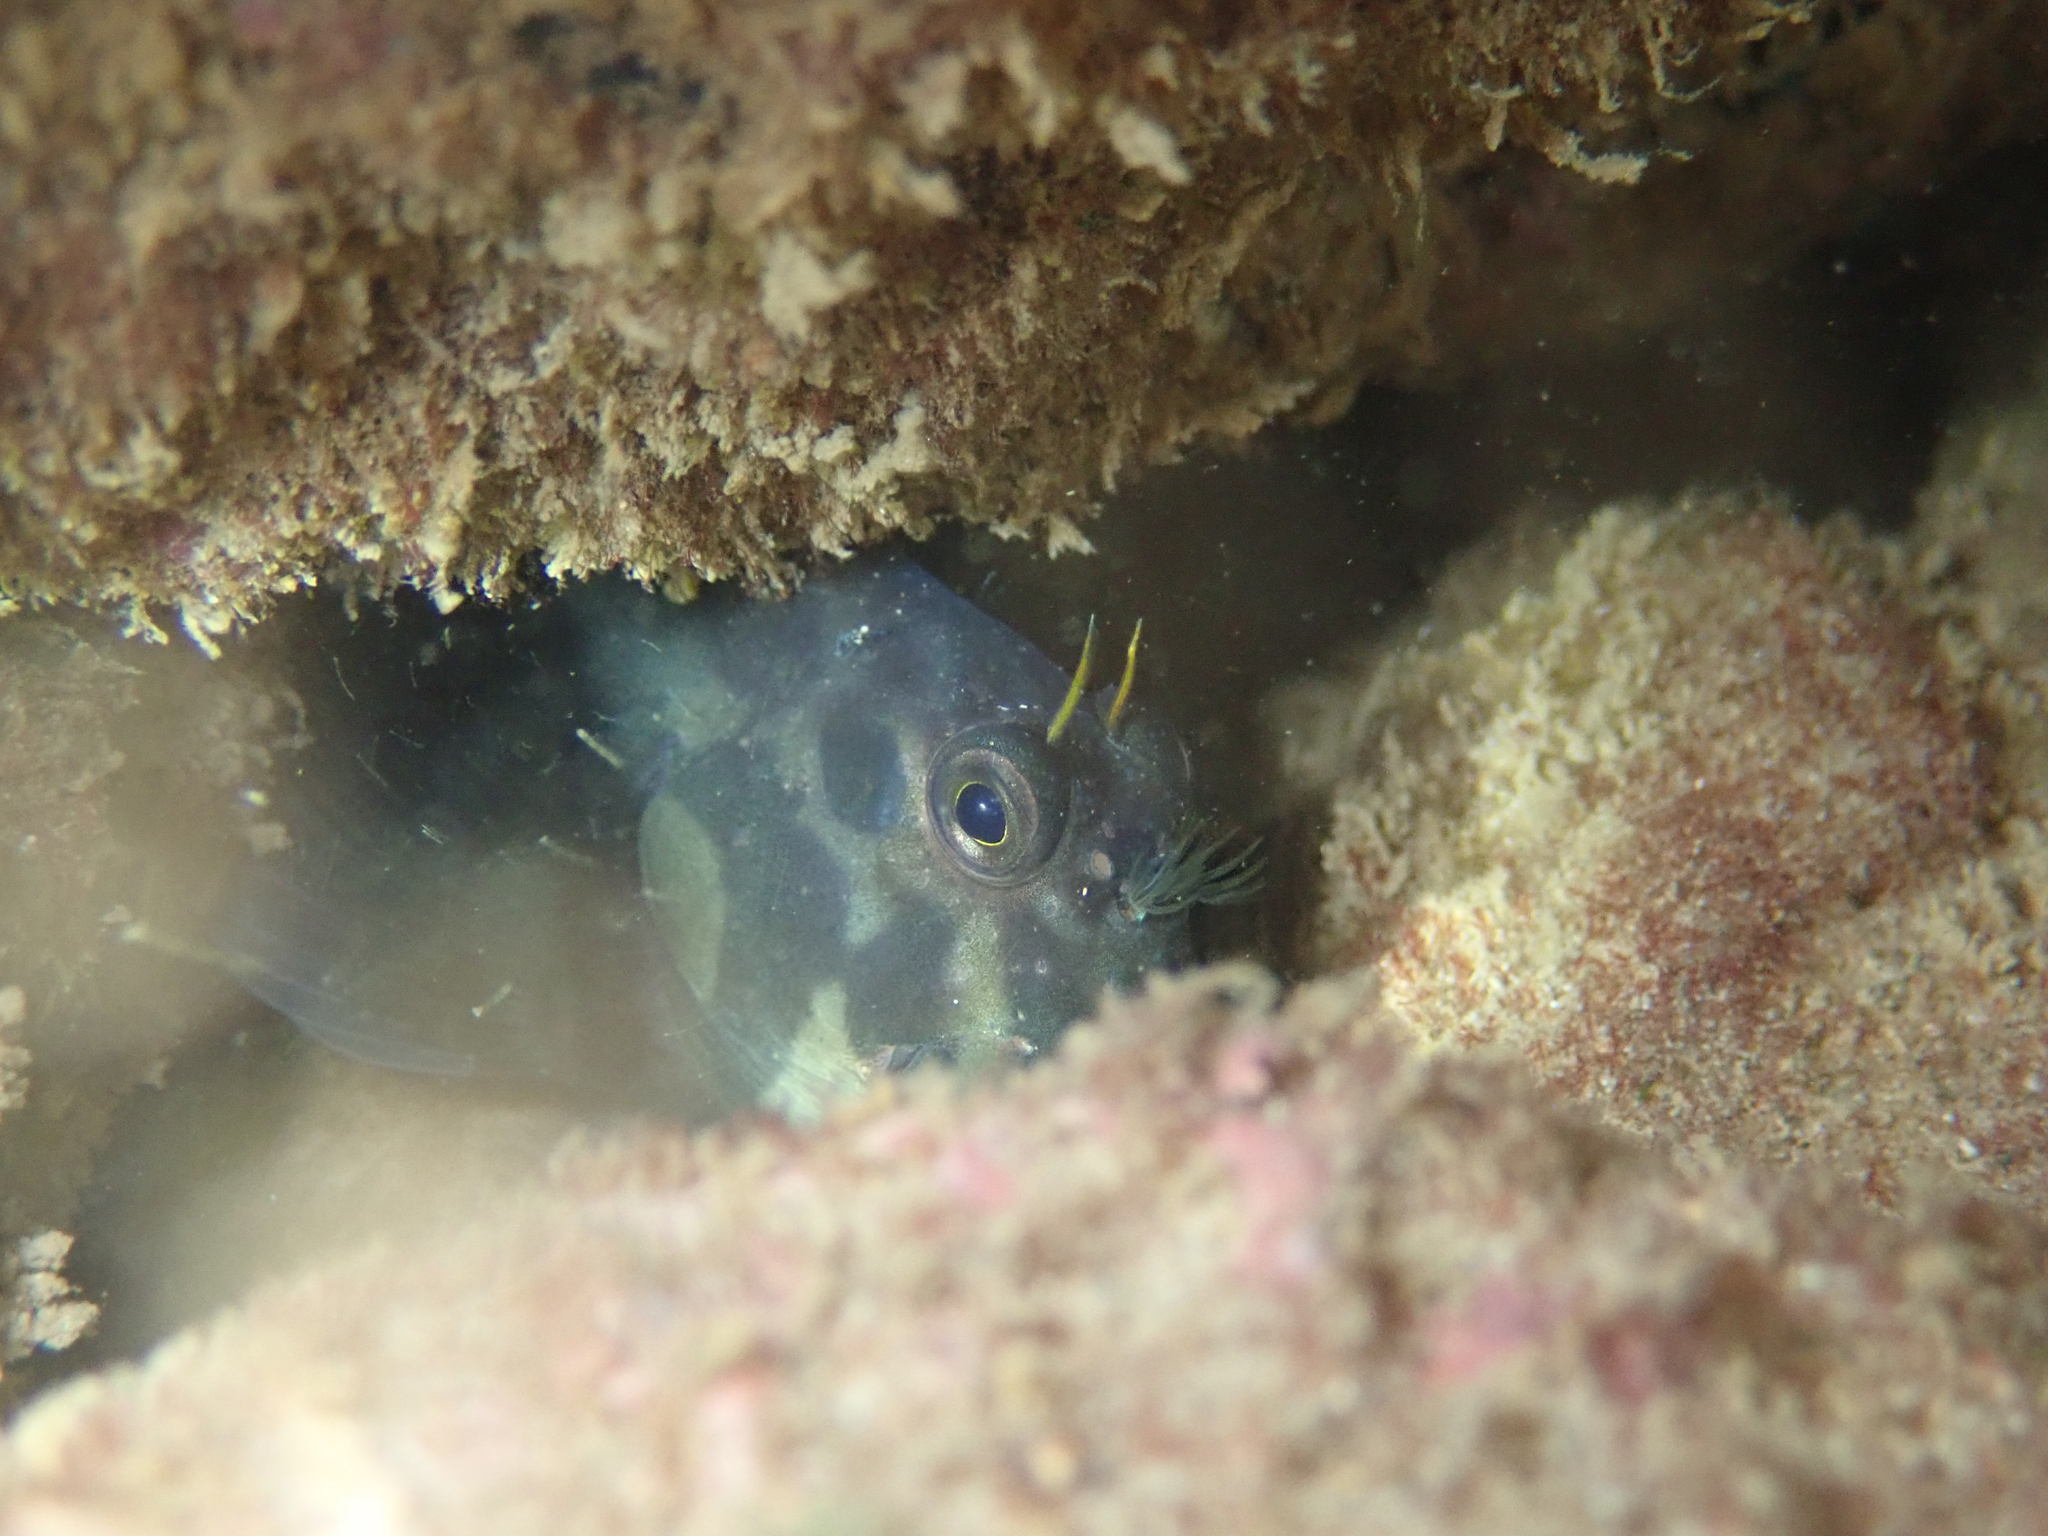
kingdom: Animalia
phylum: Chordata
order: Perciformes
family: Blenniidae
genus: Ophioblennius
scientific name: Ophioblennius atlanticus
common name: Redlip blenny
